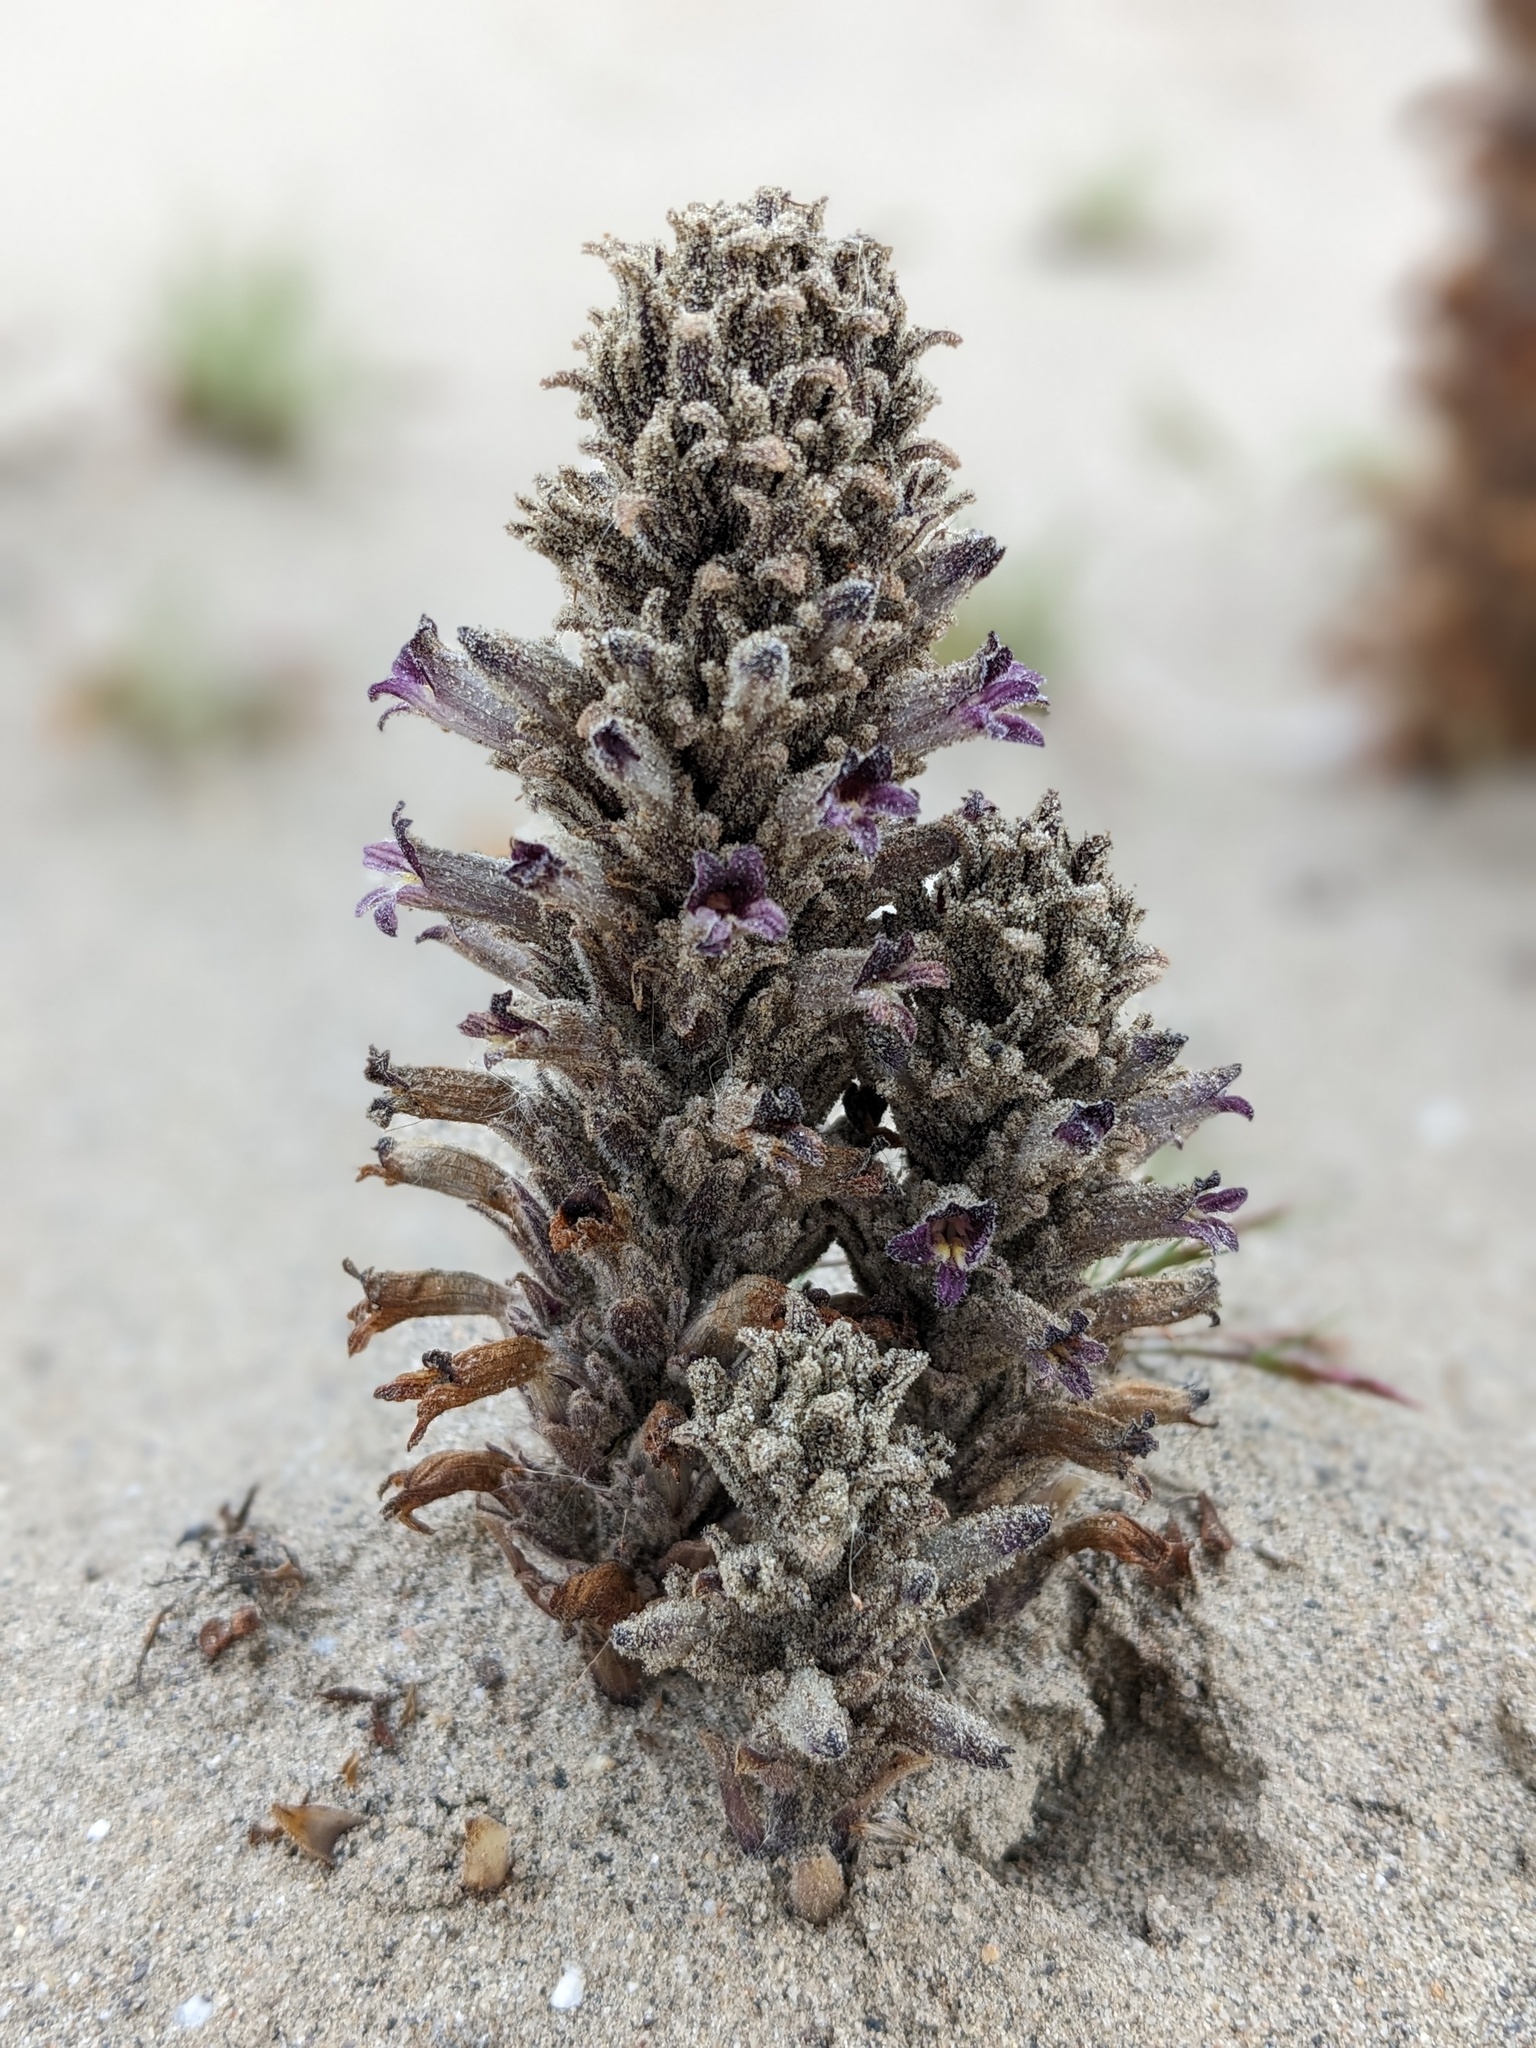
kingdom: Plantae
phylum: Tracheophyta
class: Magnoliopsida
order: Lamiales
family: Orobanchaceae
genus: Aphyllon
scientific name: Aphyllon cooperi
